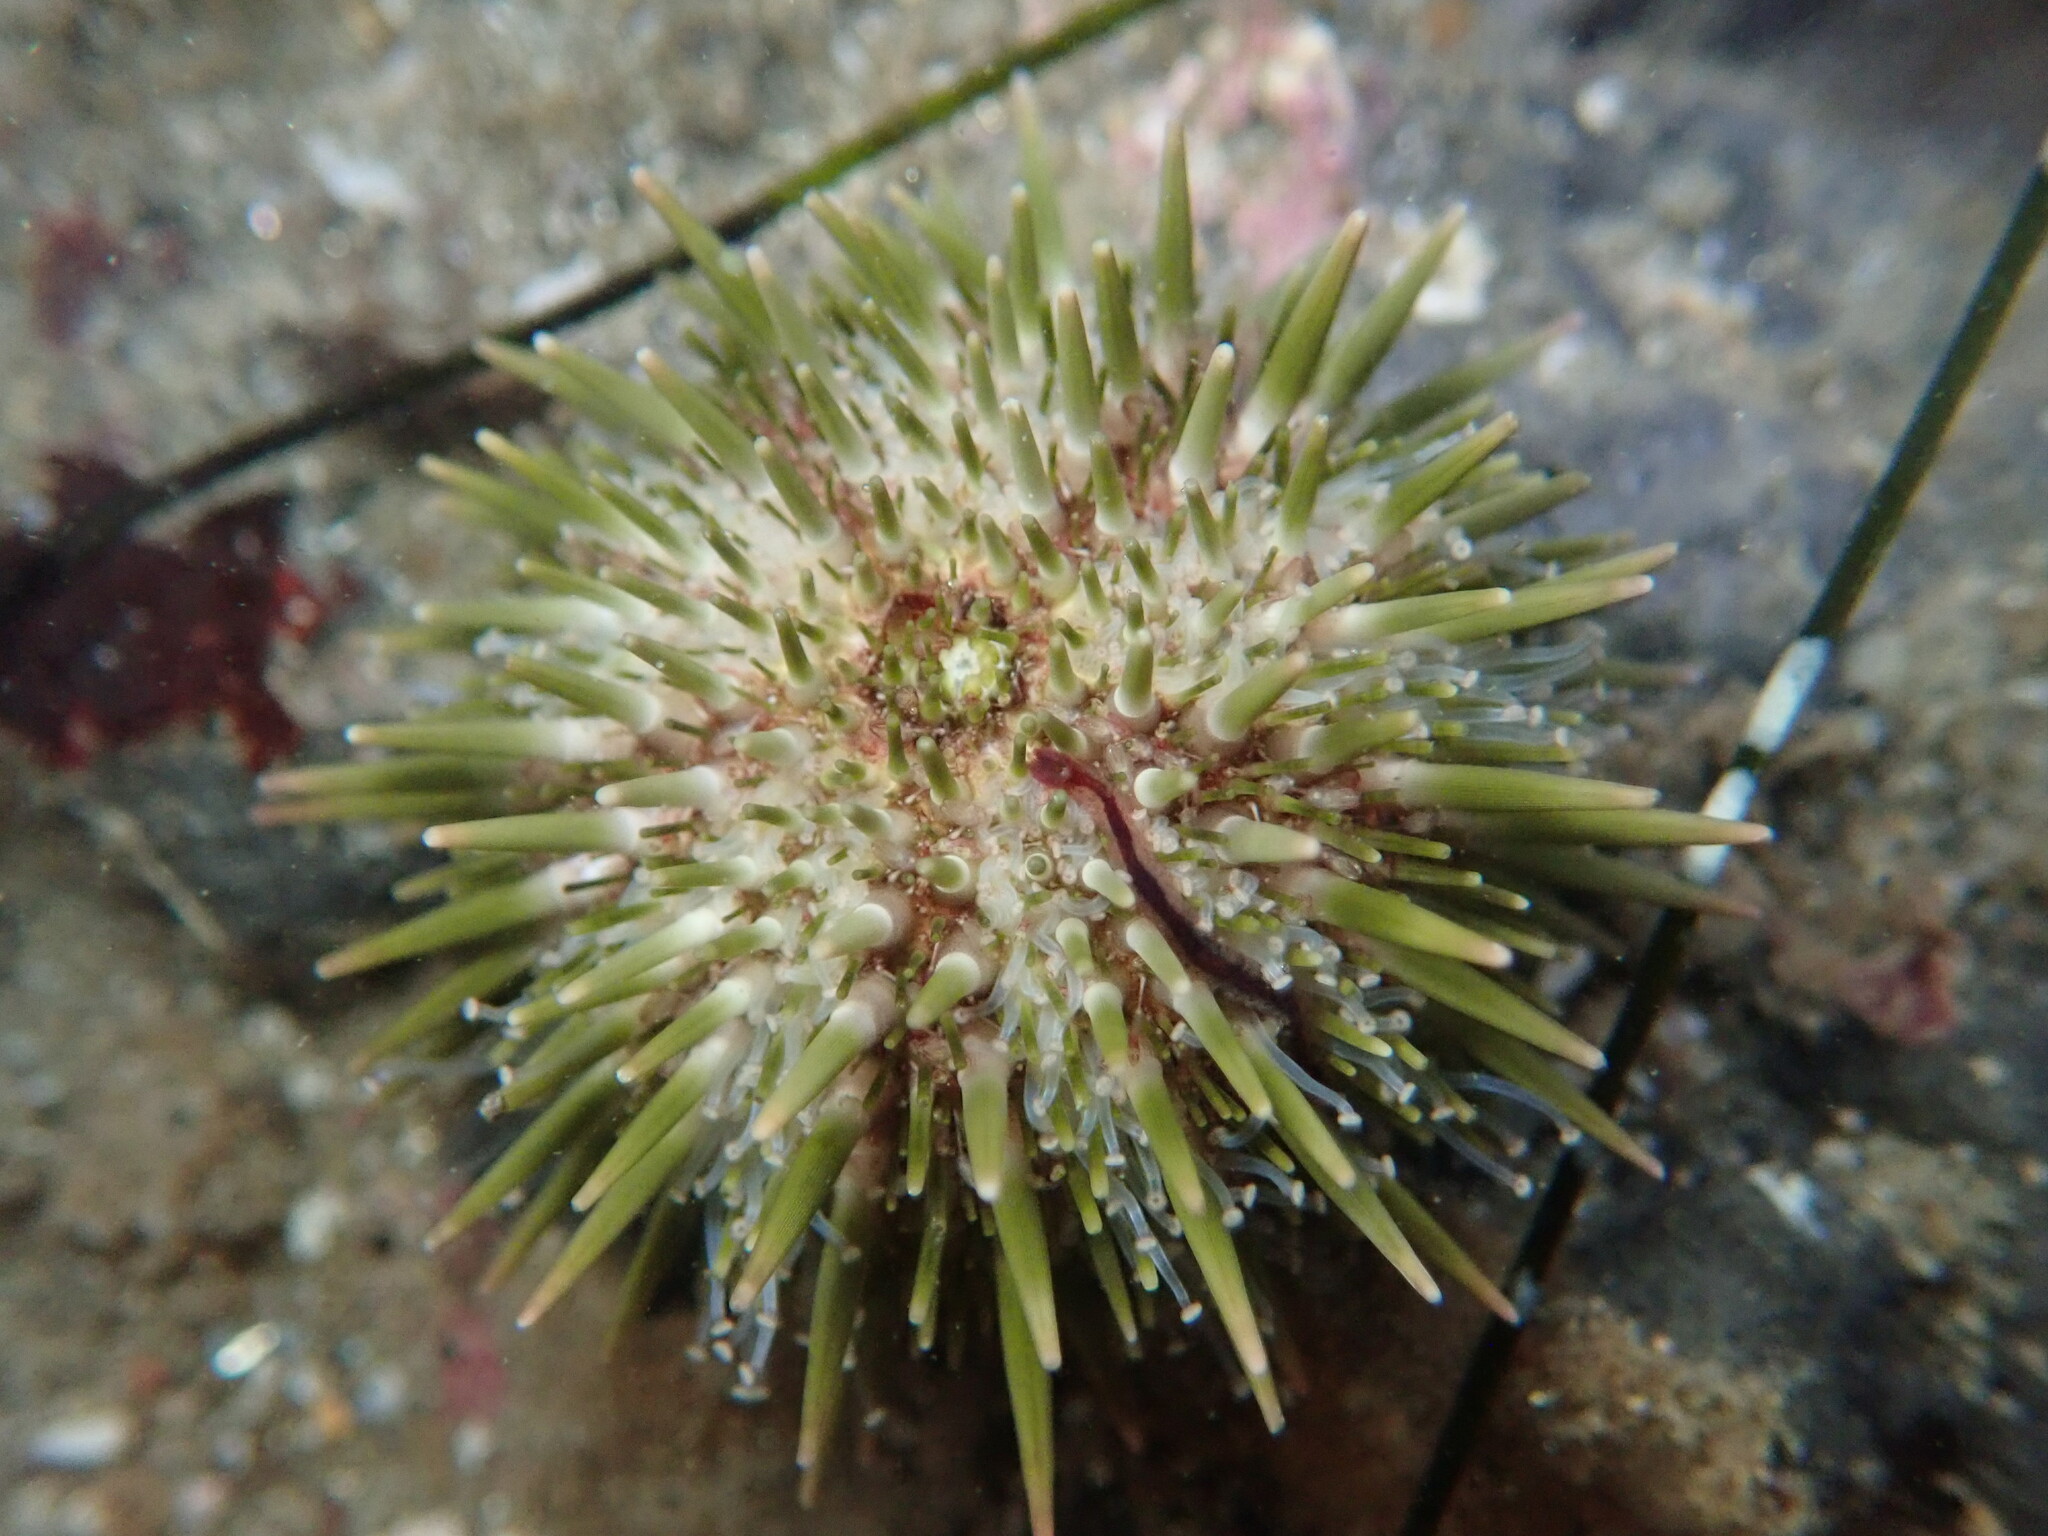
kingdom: Animalia
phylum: Echinodermata
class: Echinoidea
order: Camarodonta
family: Strongylocentrotidae
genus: Strongylocentrotus
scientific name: Strongylocentrotus purpuratus
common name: Purple sea urchin
